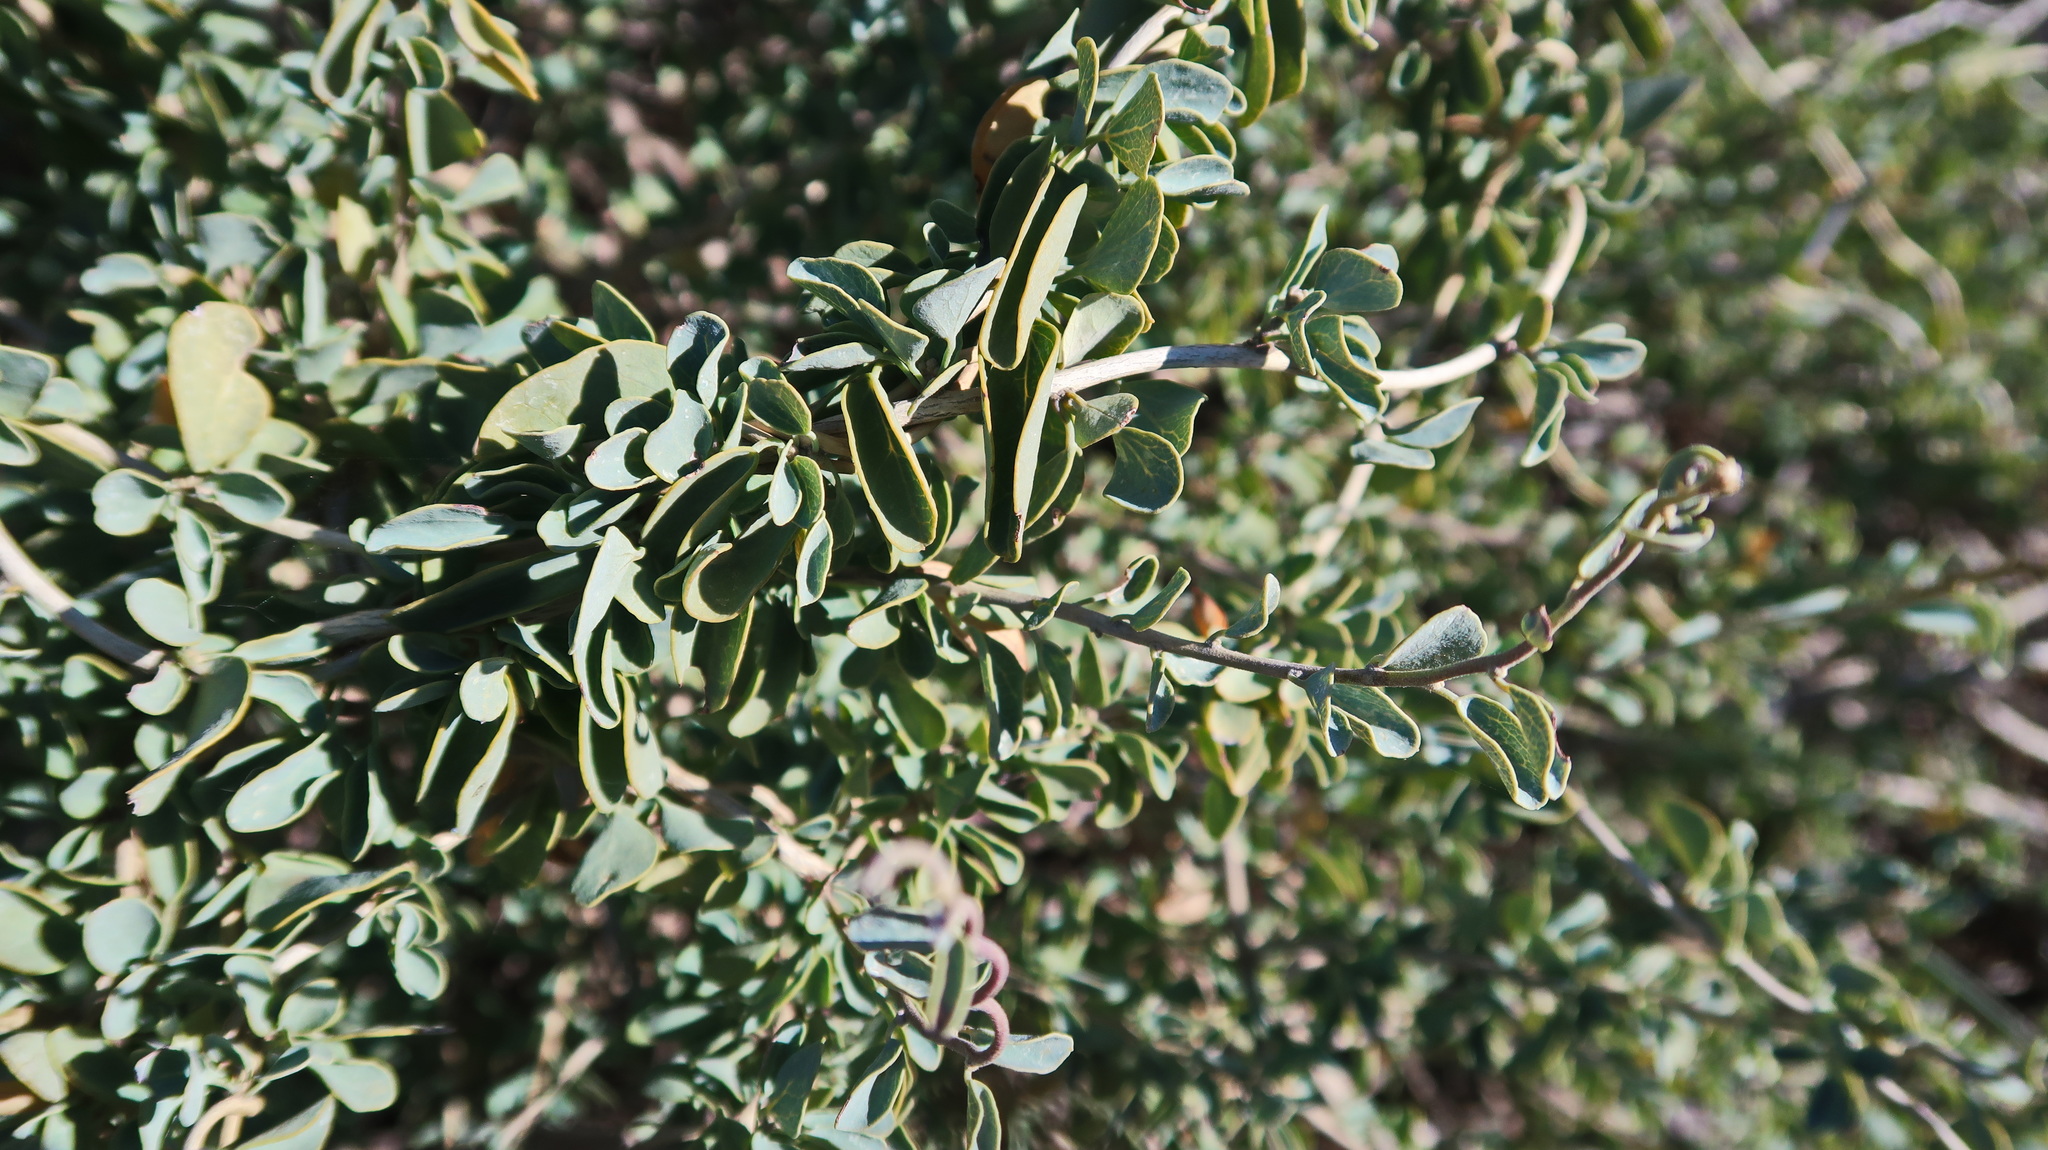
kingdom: Plantae
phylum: Tracheophyta
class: Magnoliopsida
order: Ranunculales
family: Menispermaceae
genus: Cissampelos
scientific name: Cissampelos capensis
